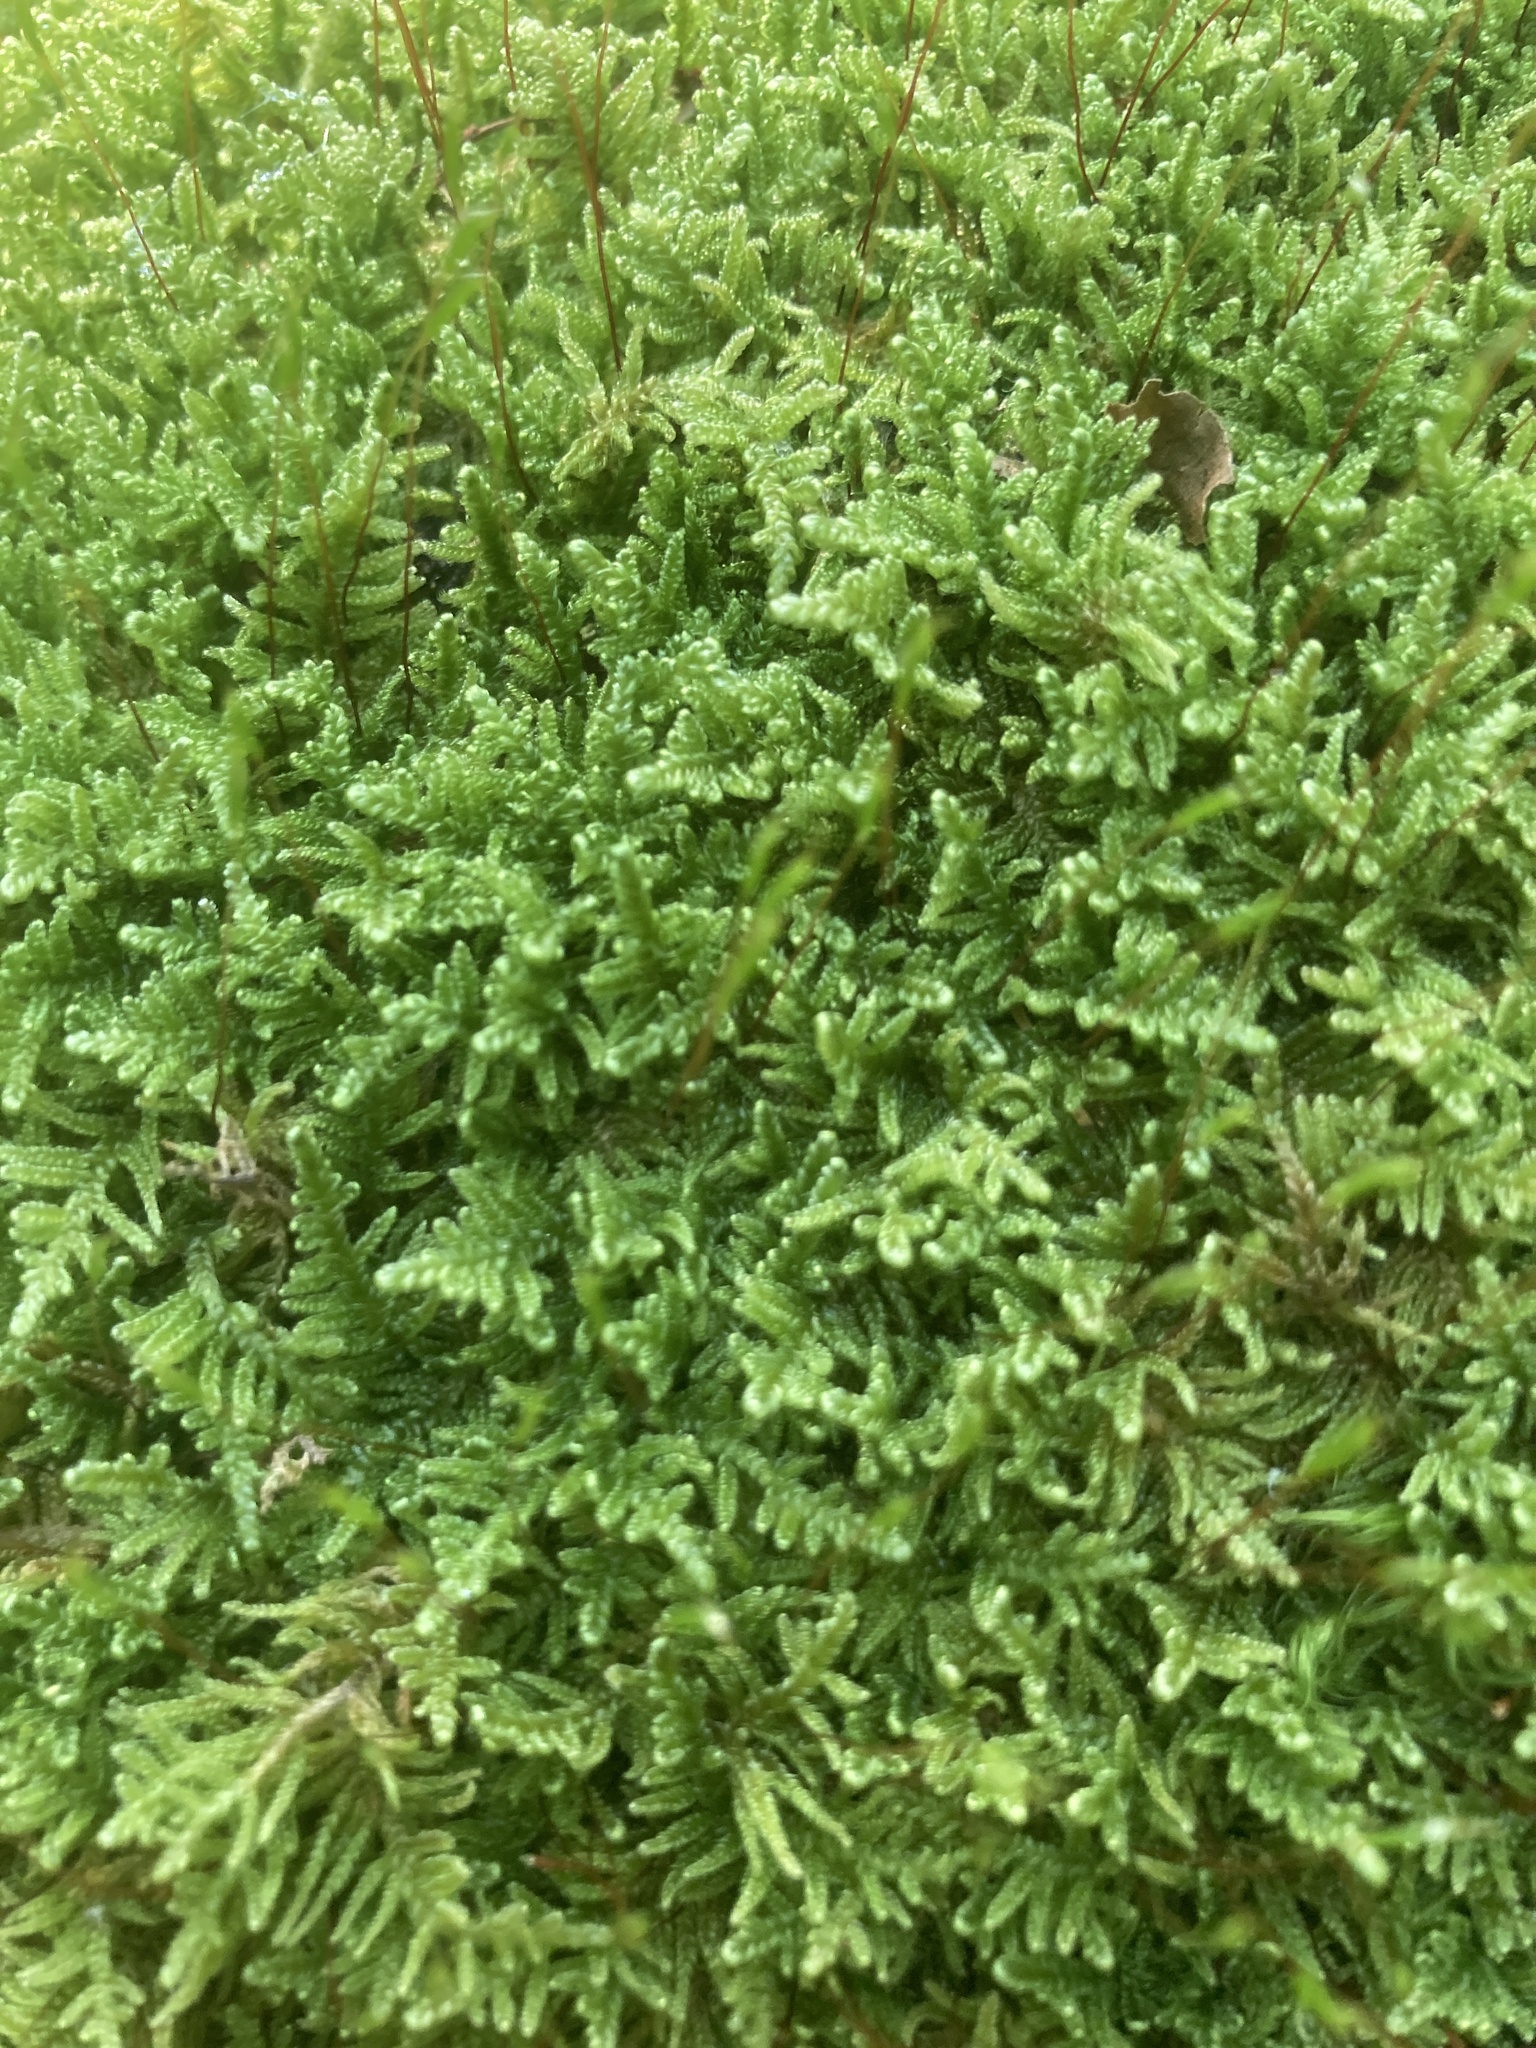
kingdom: Plantae
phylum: Bryophyta
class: Bryopsida
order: Hypnales
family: Callicladiaceae
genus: Callicladium
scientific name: Callicladium imponens
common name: Brocade moss
